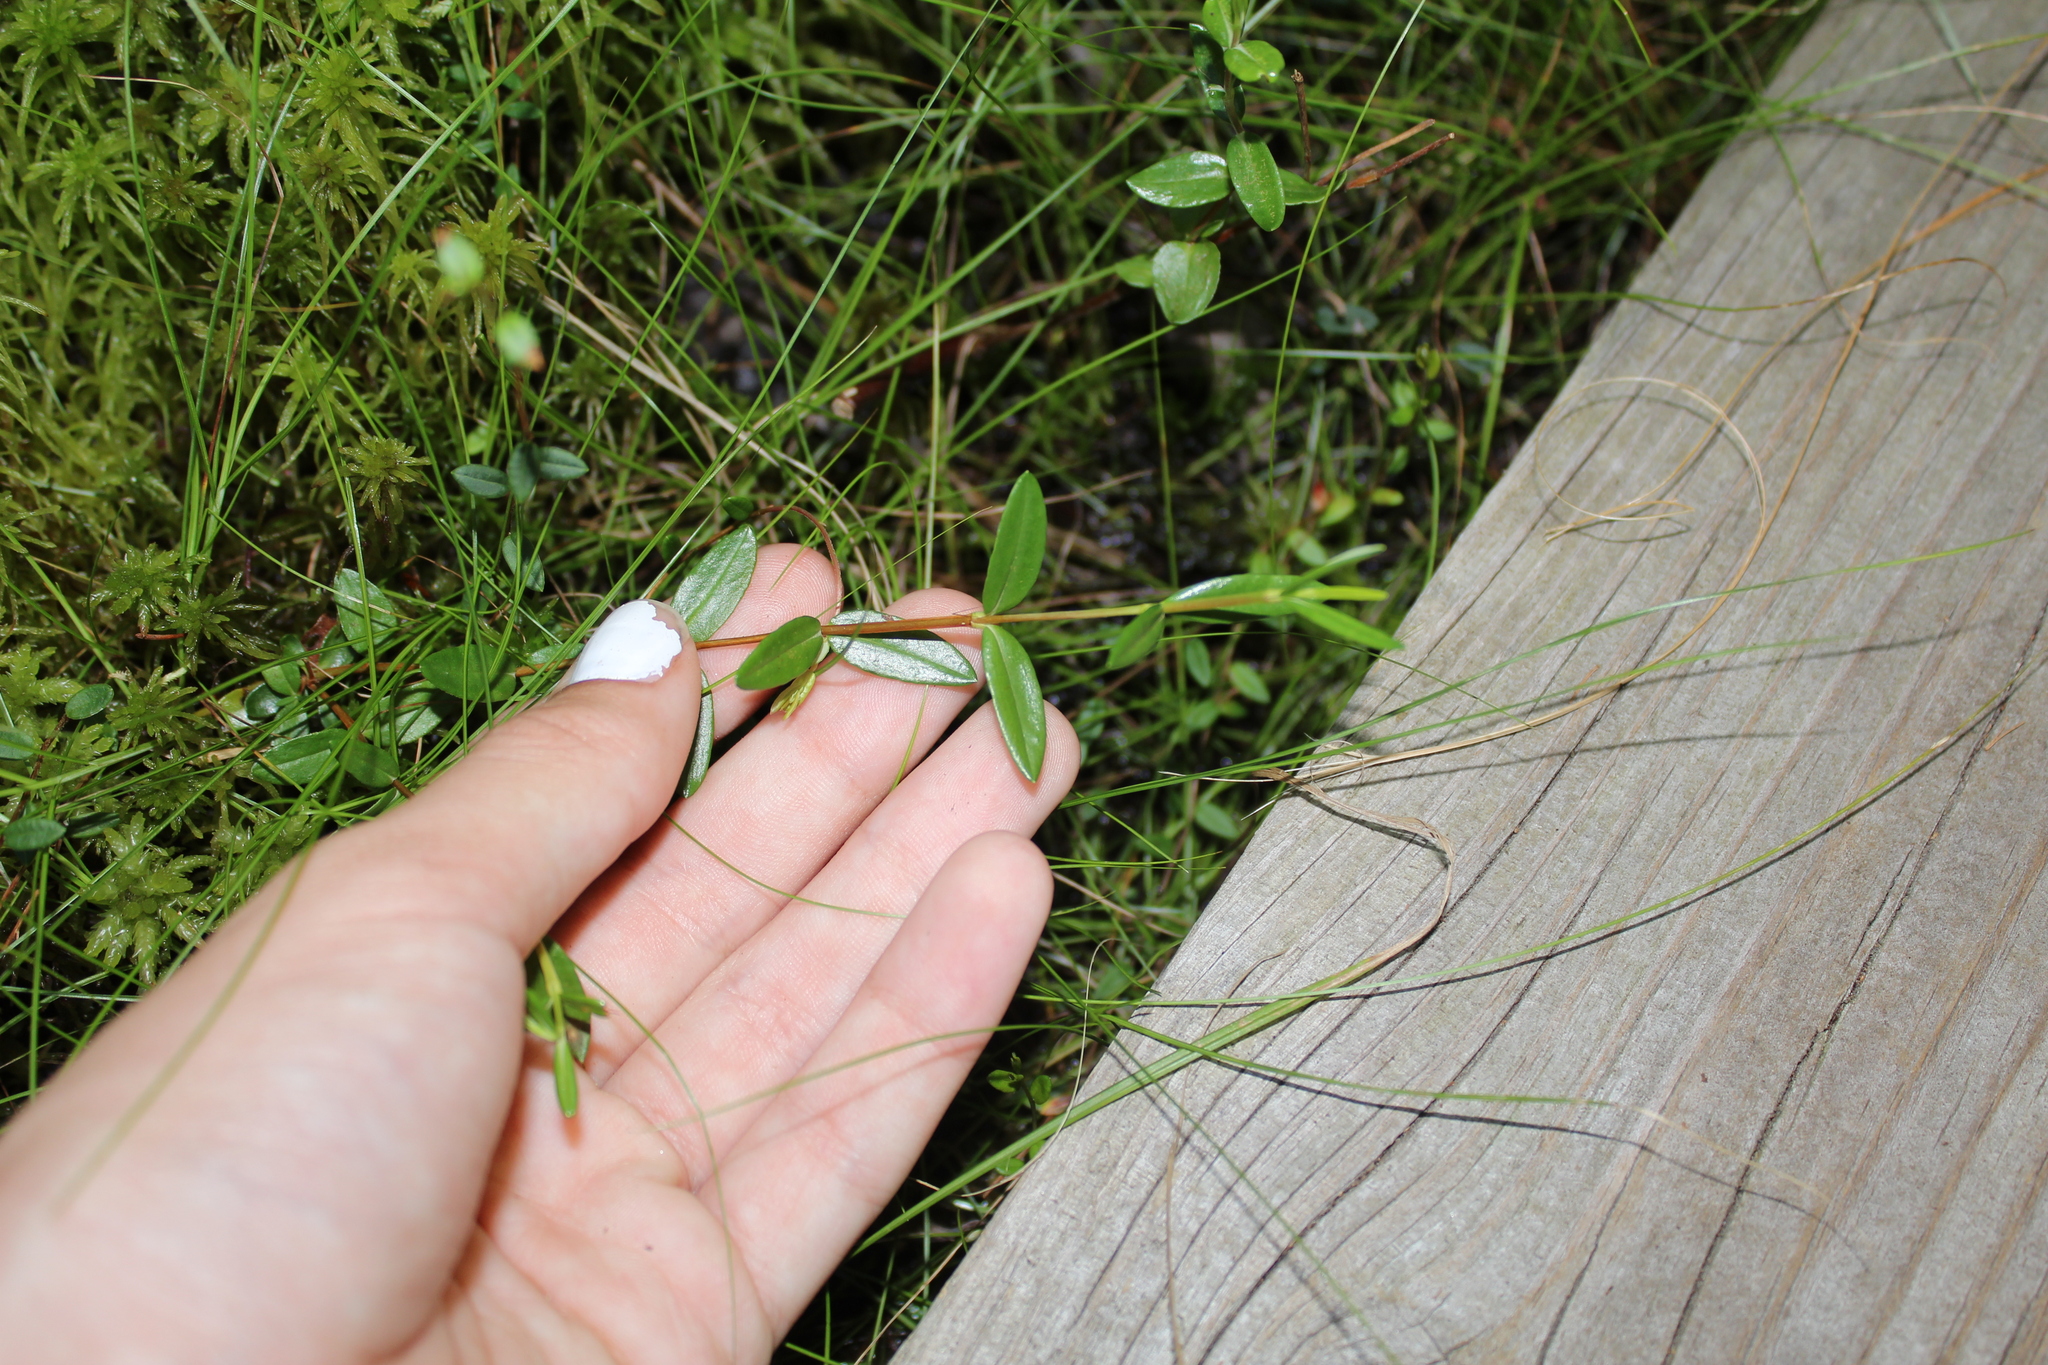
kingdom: Plantae
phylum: Tracheophyta
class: Magnoliopsida
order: Ericales
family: Ericaceae
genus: Kalmia
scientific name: Kalmia polifolia
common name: Bog-laurel
